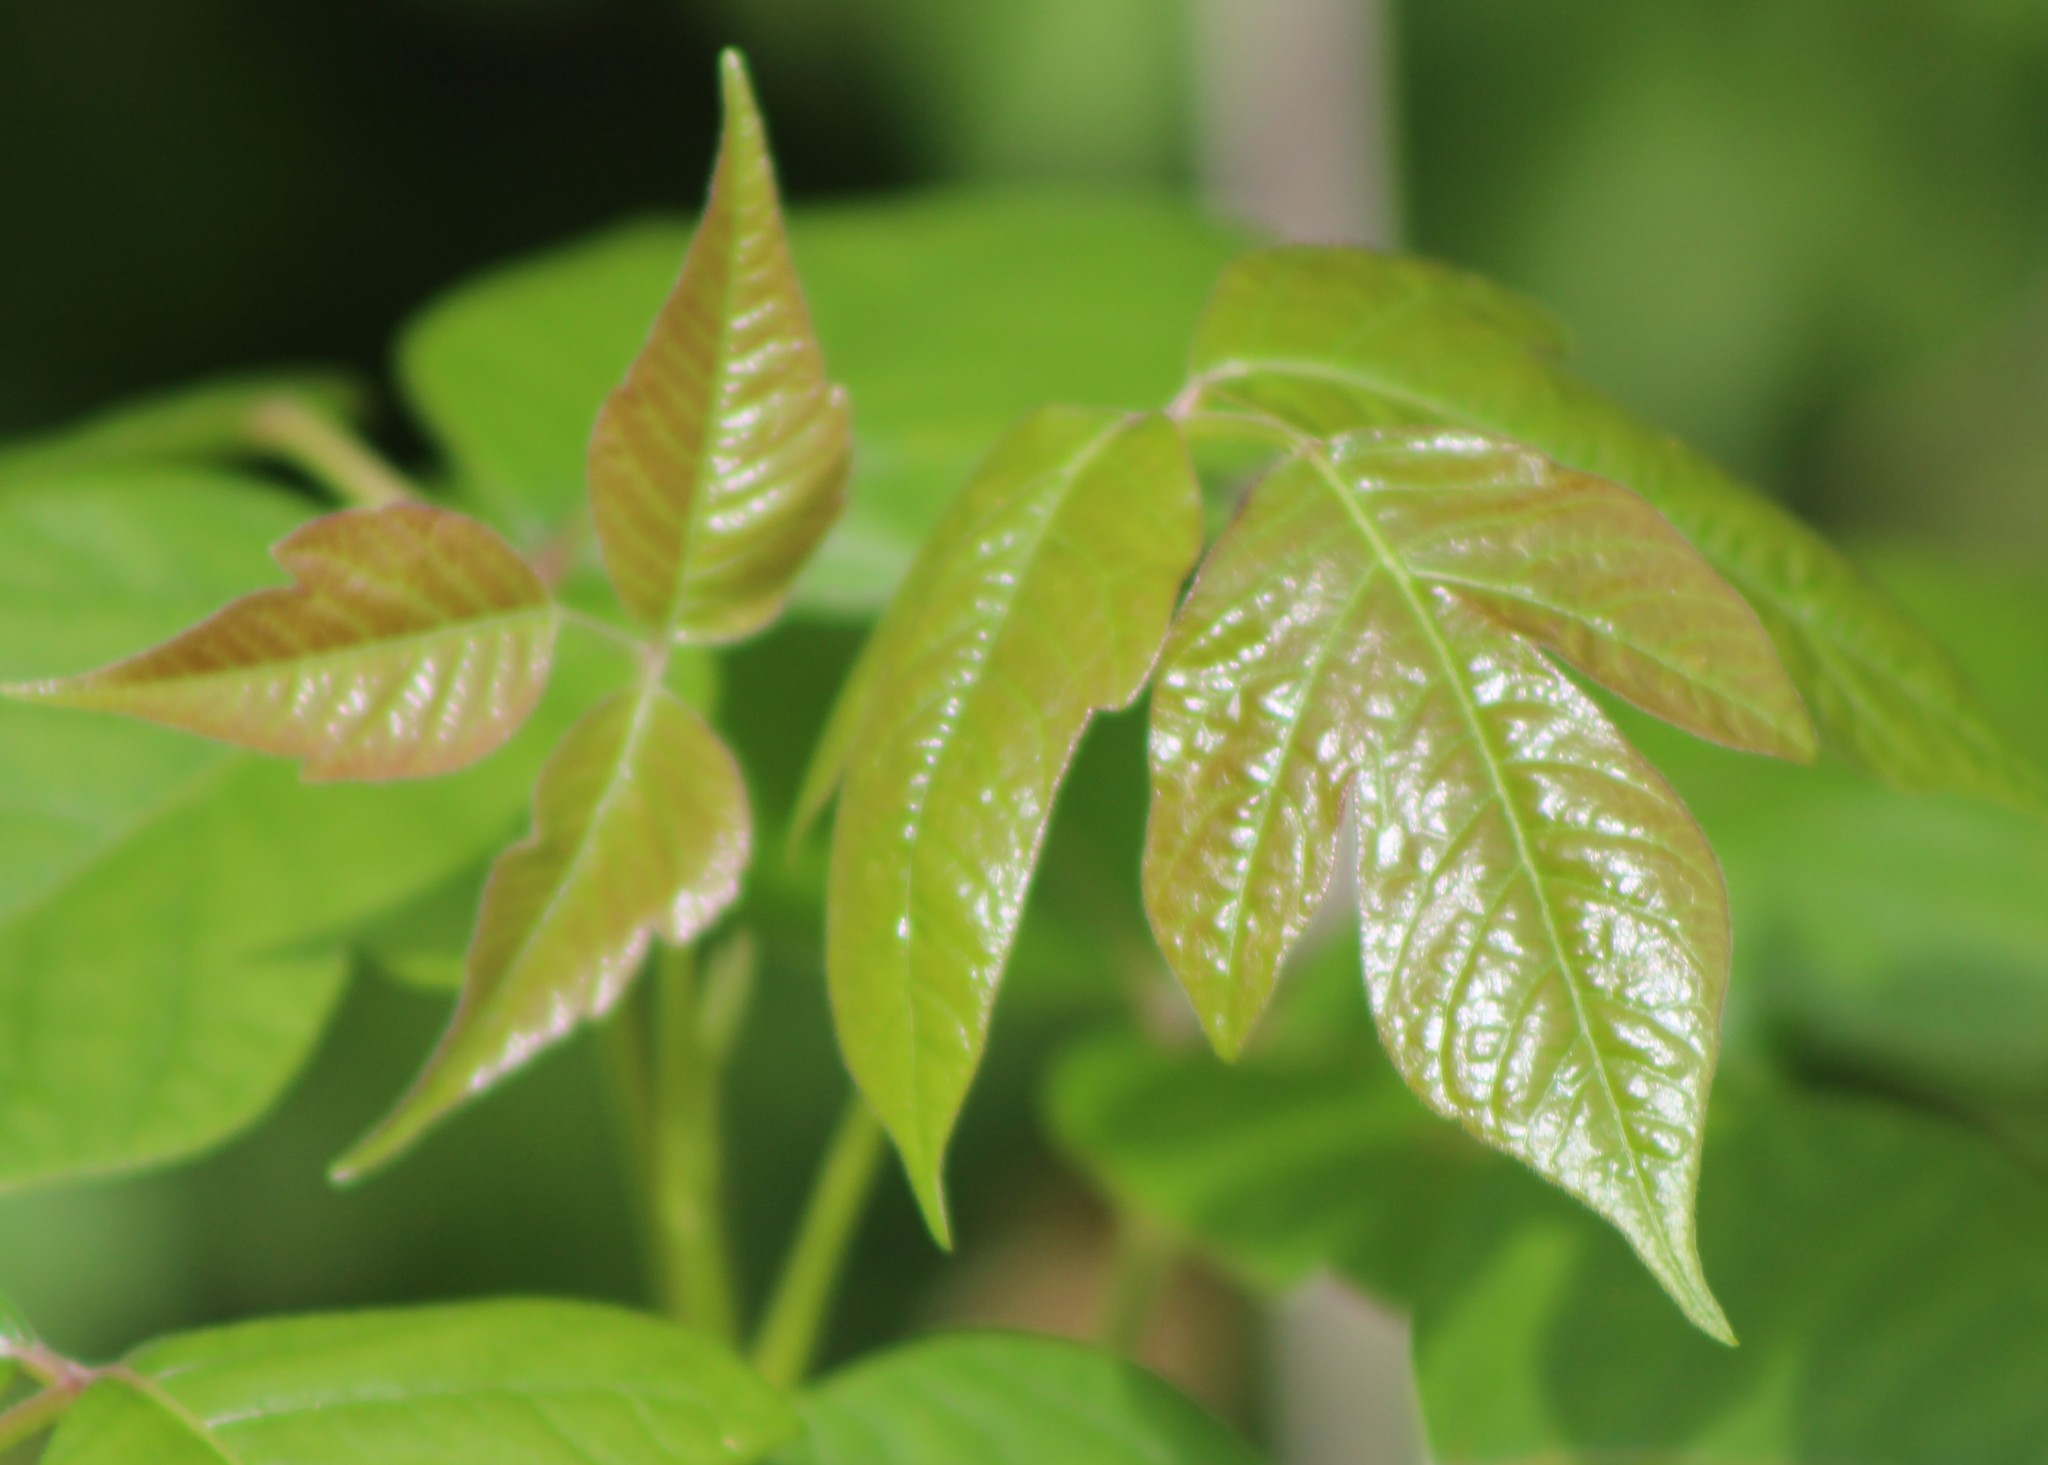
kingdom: Plantae
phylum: Tracheophyta
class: Magnoliopsida
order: Sapindales
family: Anacardiaceae
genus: Toxicodendron
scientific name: Toxicodendron radicans
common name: Poison ivy
